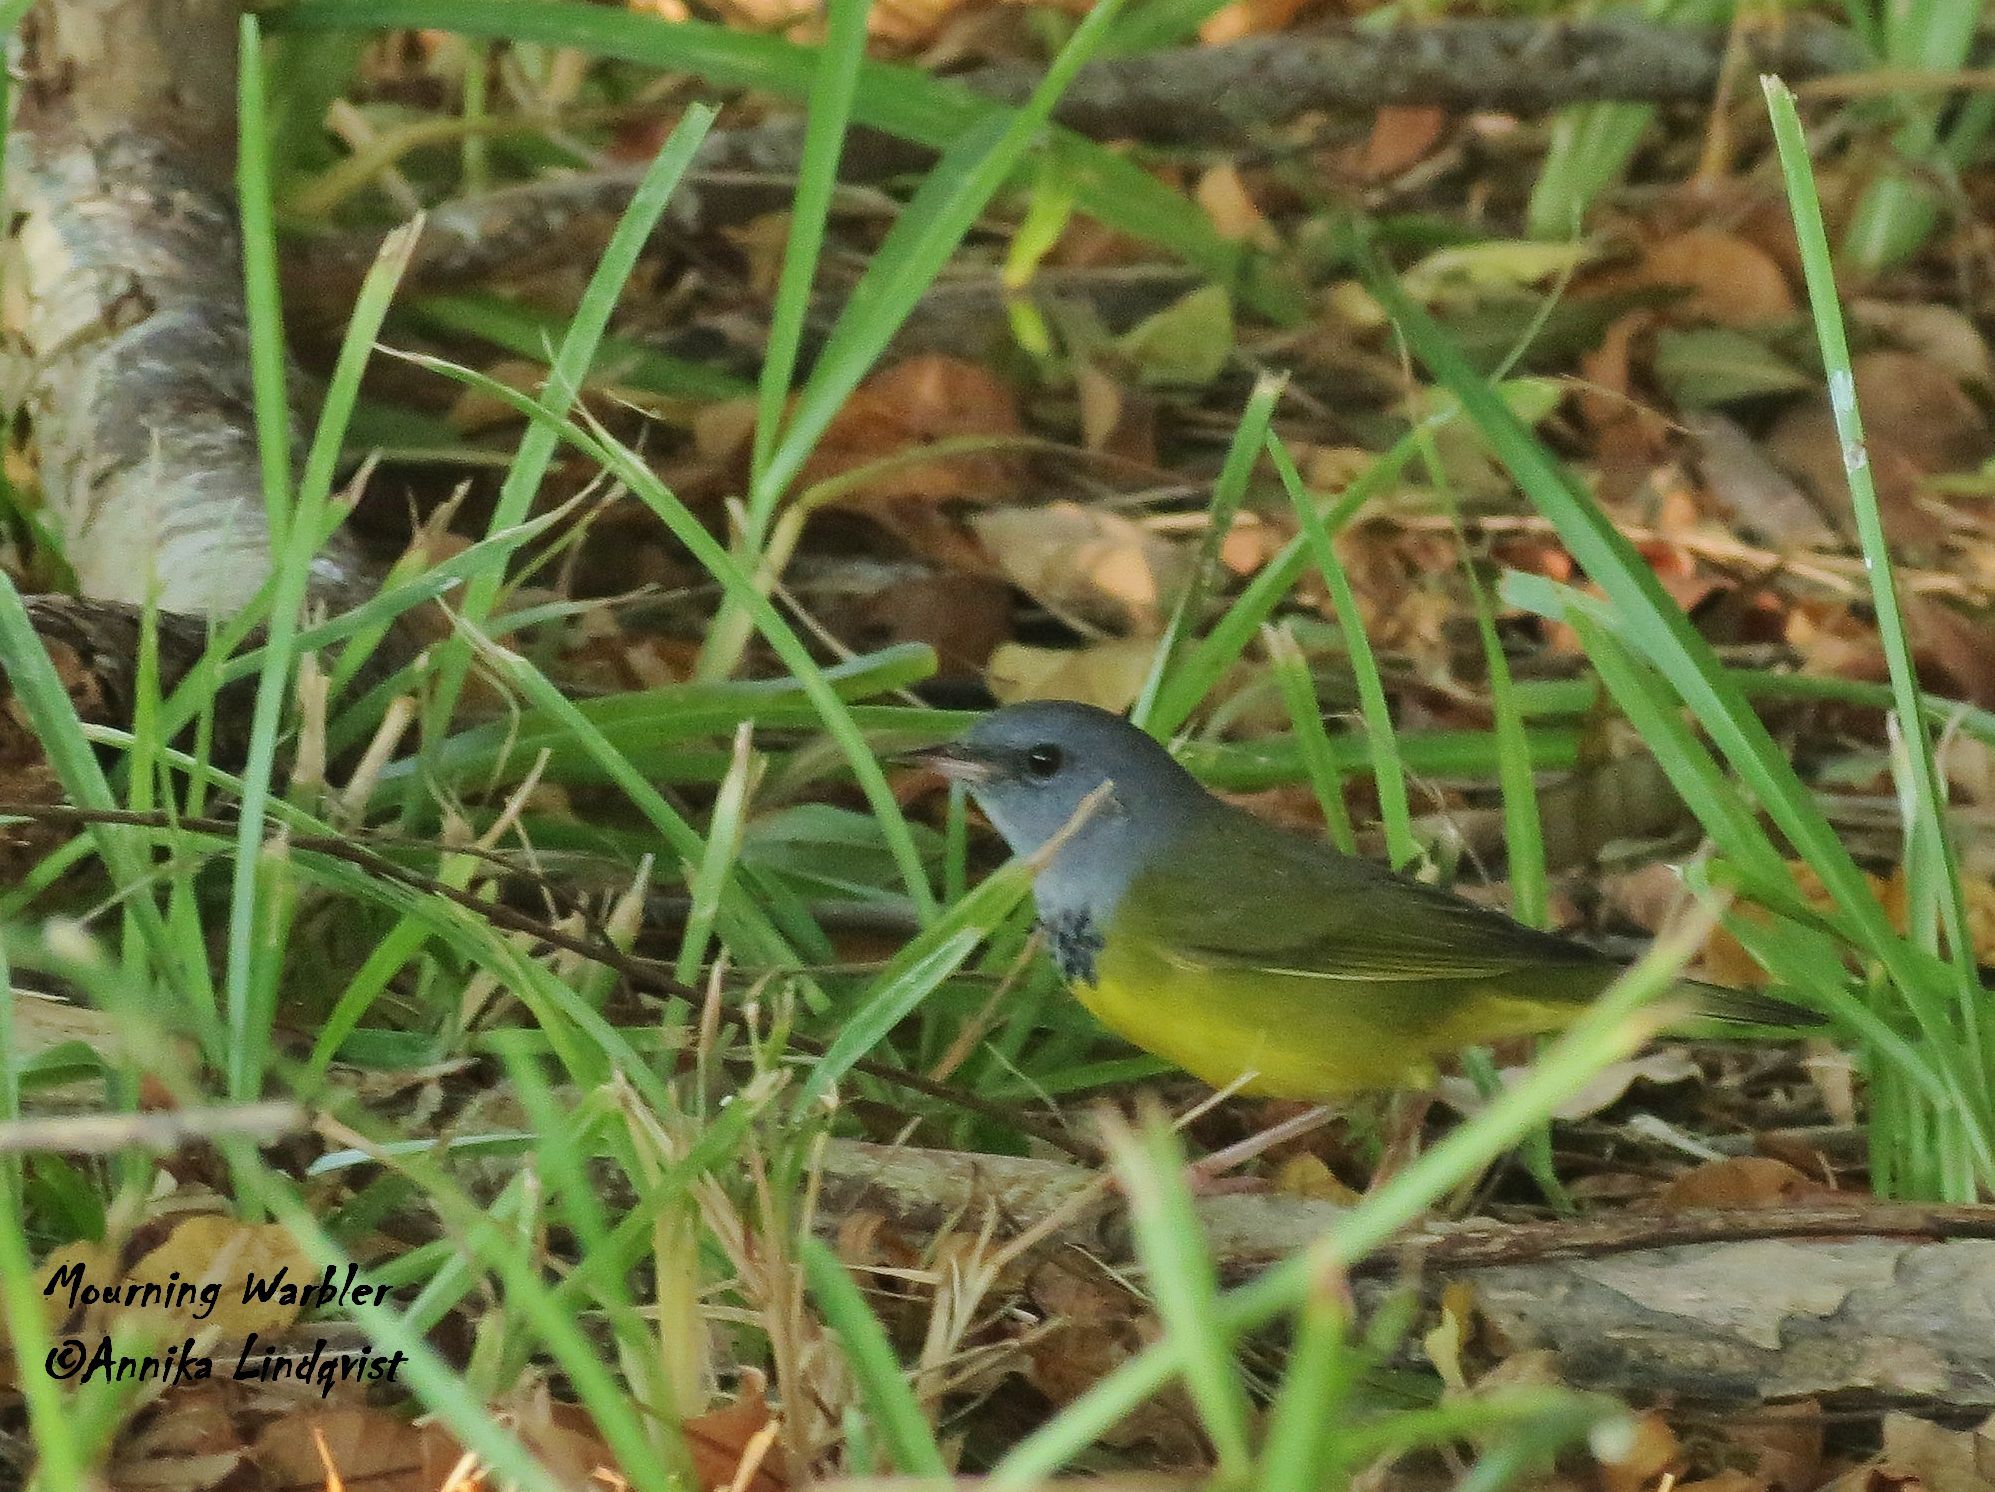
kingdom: Animalia
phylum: Chordata
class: Aves
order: Passeriformes
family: Parulidae
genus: Geothlypis
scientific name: Geothlypis philadelphia
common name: Mourning warbler
